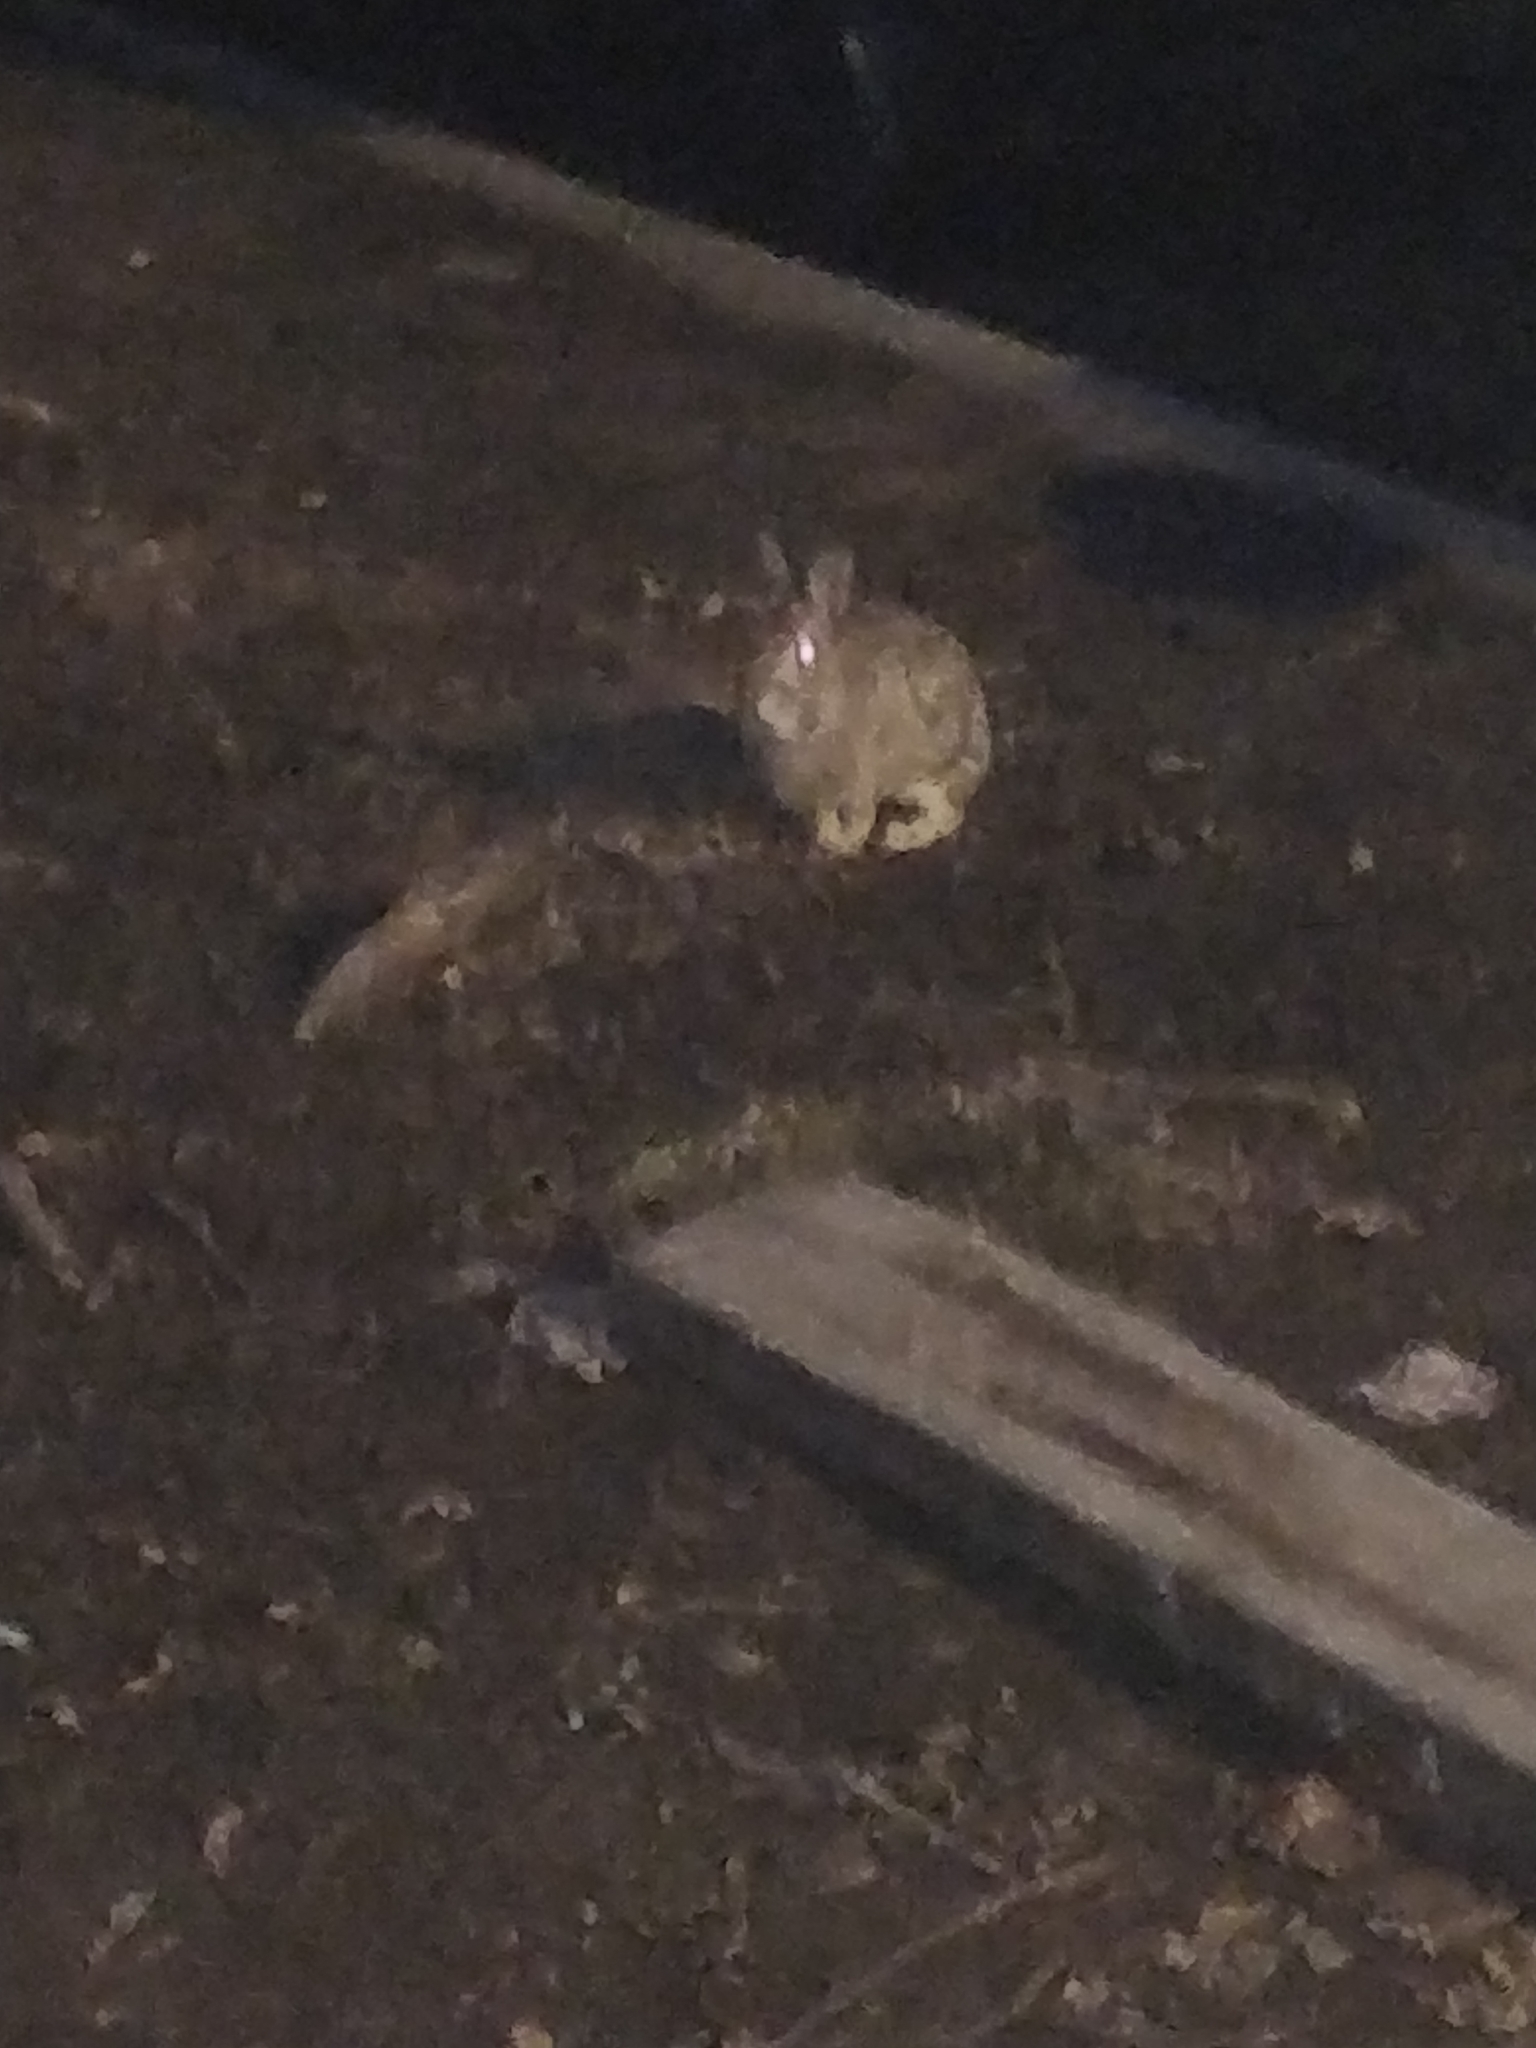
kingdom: Animalia
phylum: Chordata
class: Mammalia
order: Lagomorpha
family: Leporidae
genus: Sylvilagus
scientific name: Sylvilagus floridanus
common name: Eastern cottontail
